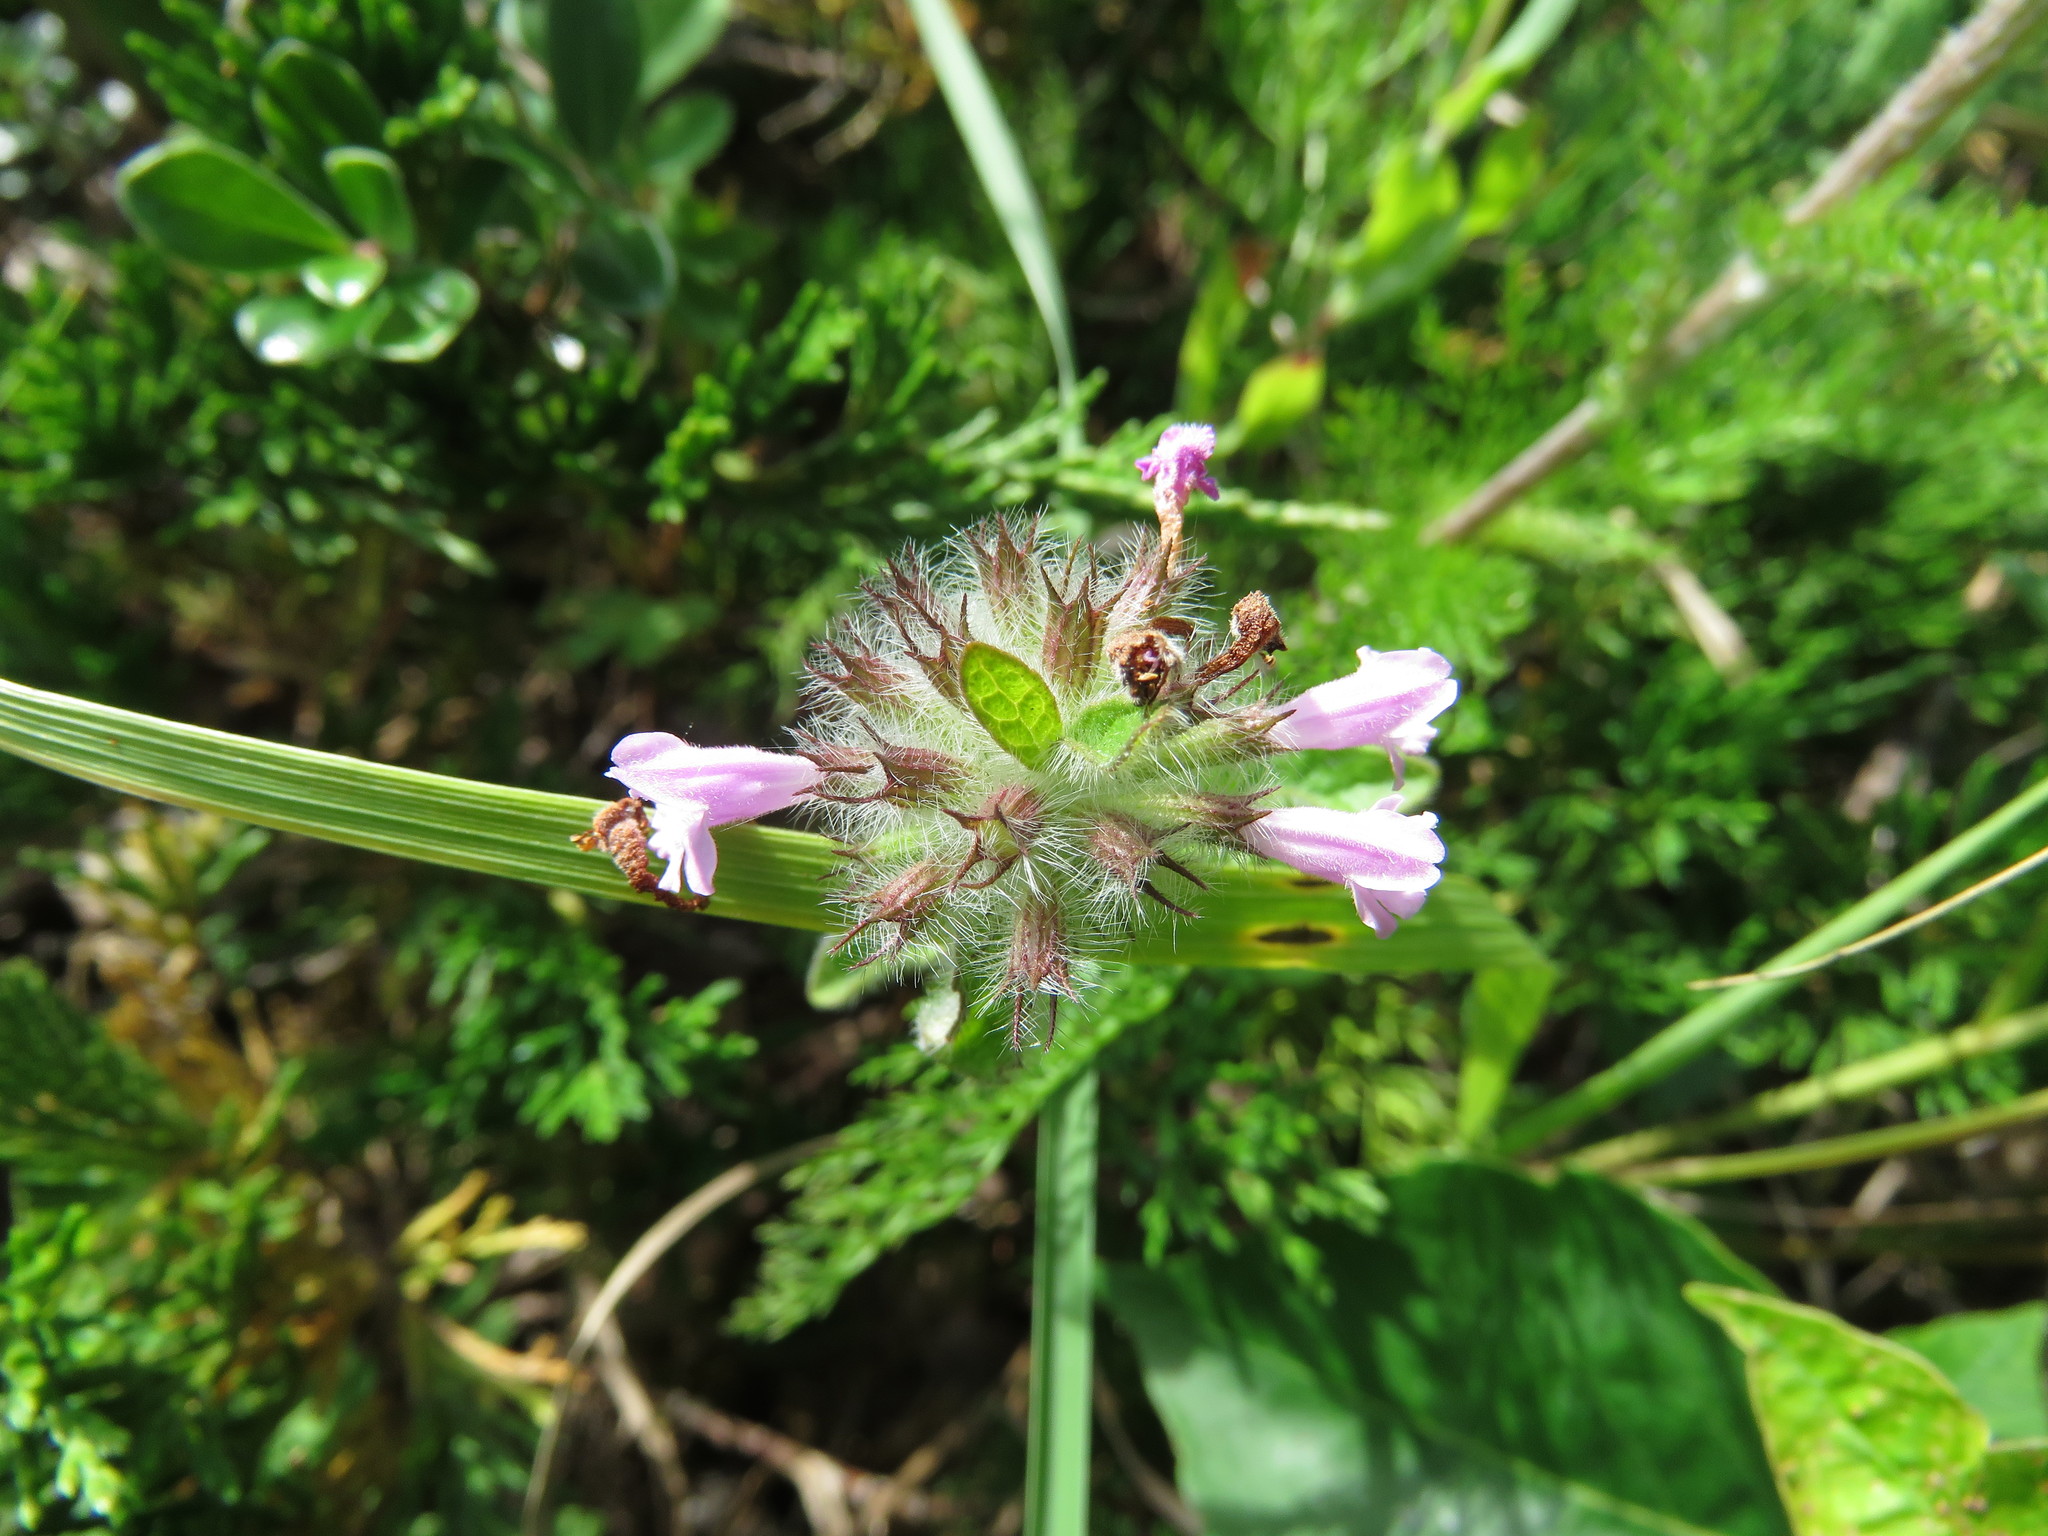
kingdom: Plantae
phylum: Tracheophyta
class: Magnoliopsida
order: Lamiales
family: Lamiaceae
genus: Clinopodium
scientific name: Clinopodium vulgare
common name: Wild basil
